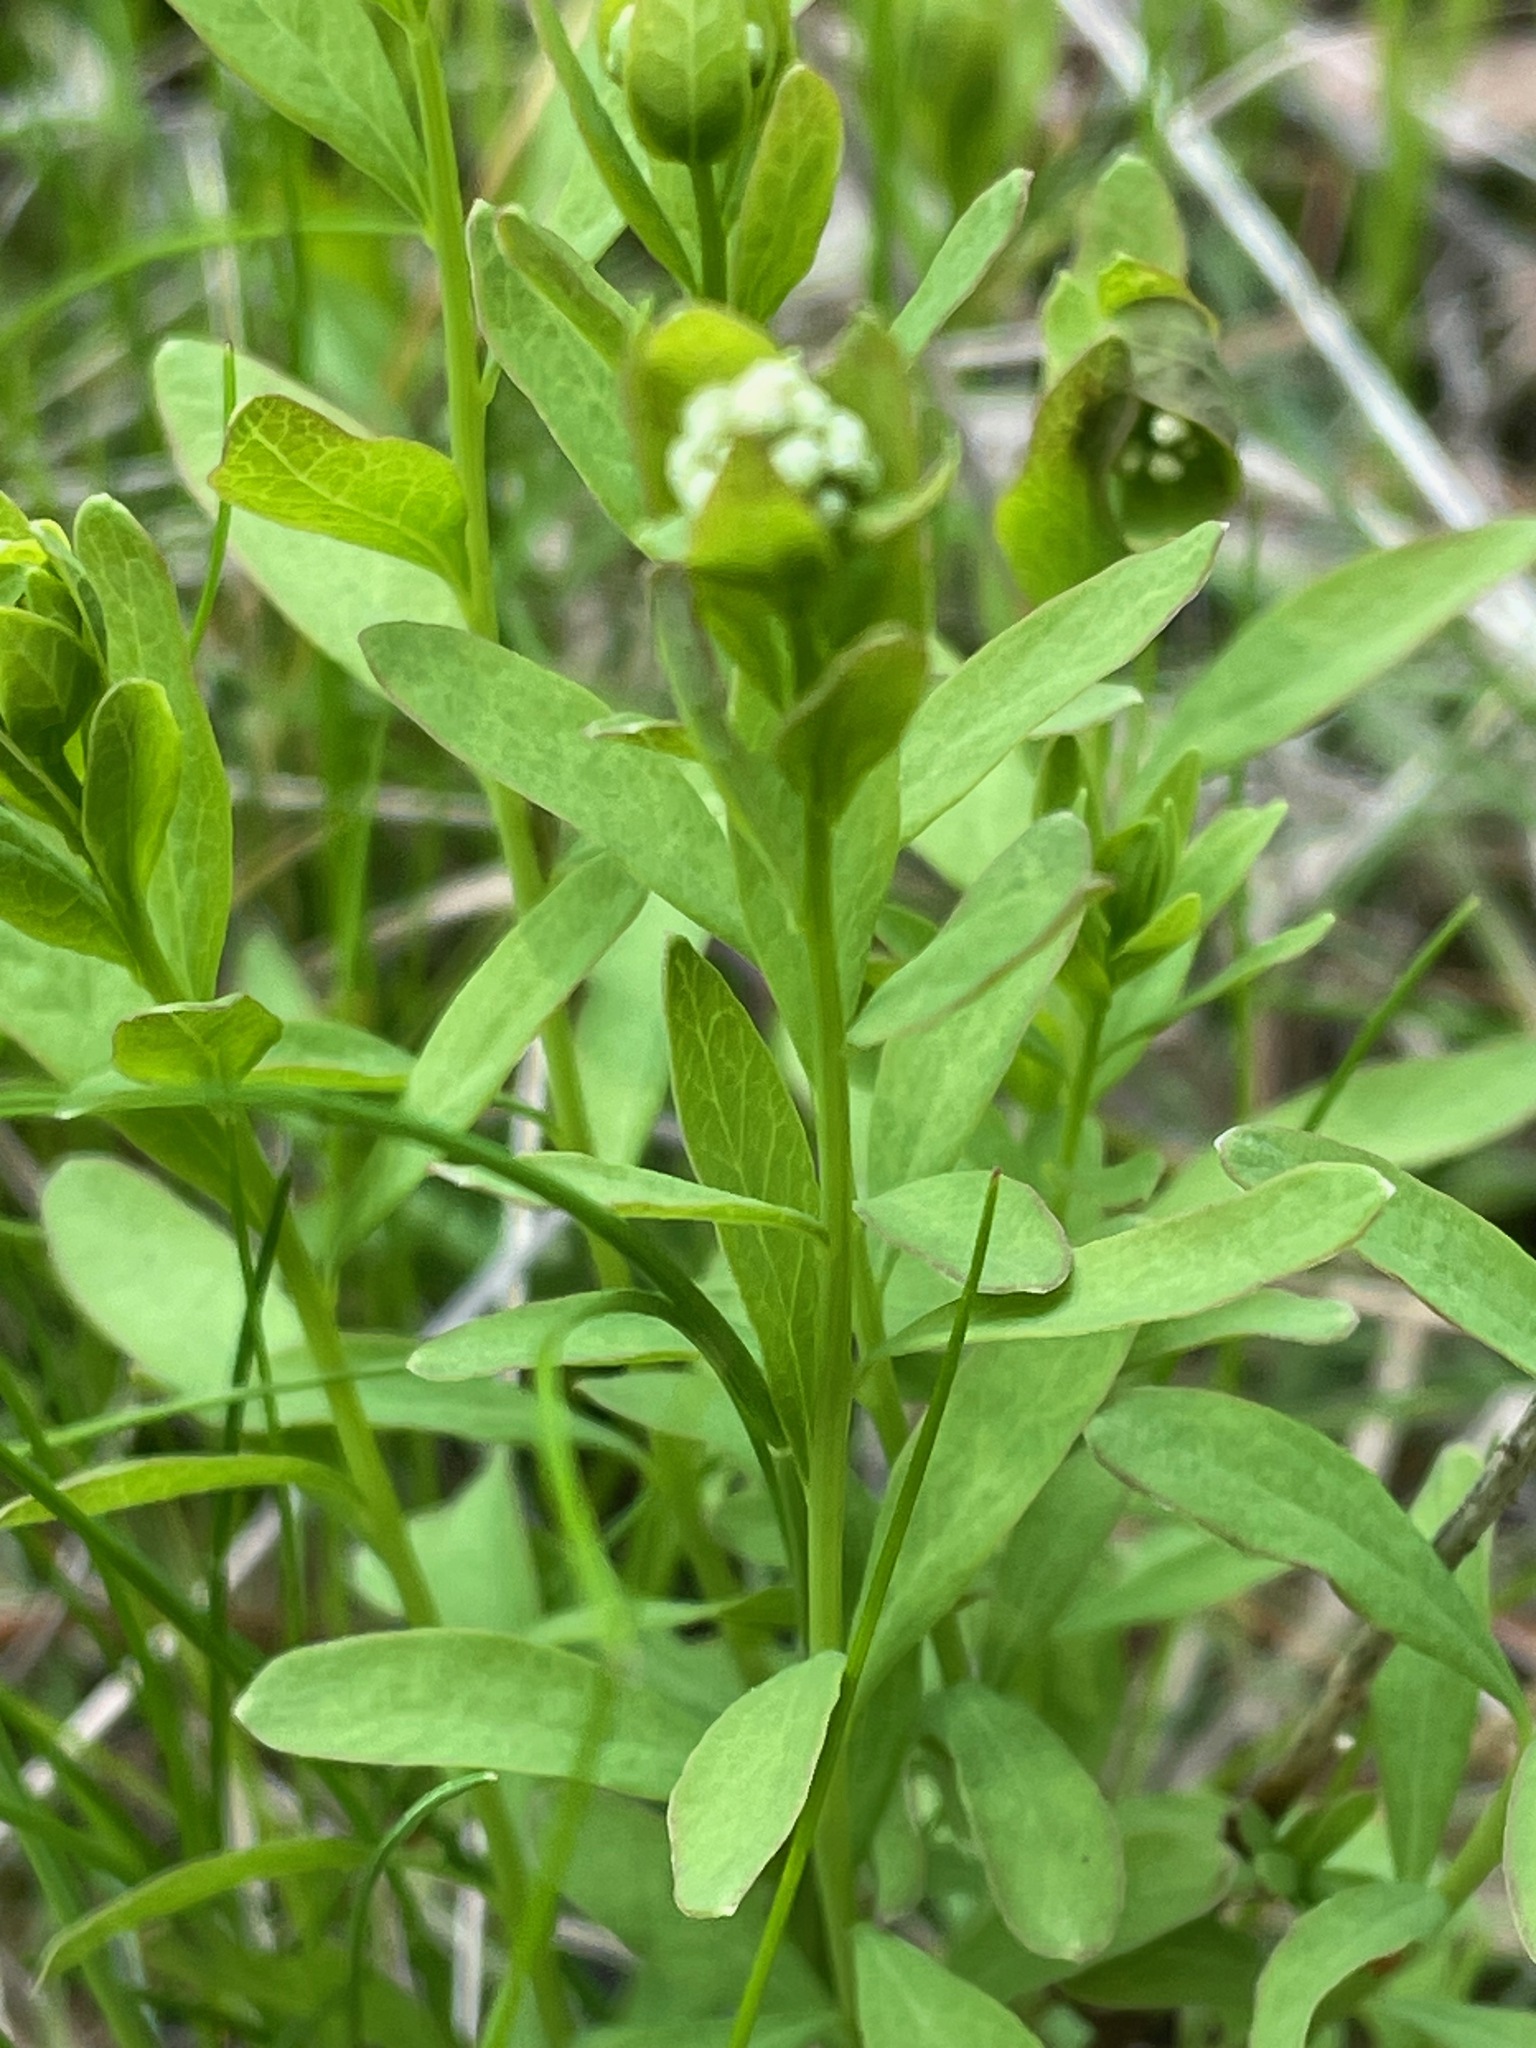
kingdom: Plantae
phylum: Tracheophyta
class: Magnoliopsida
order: Santalales
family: Comandraceae
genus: Comandra
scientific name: Comandra umbellata
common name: Bastard toadflax
